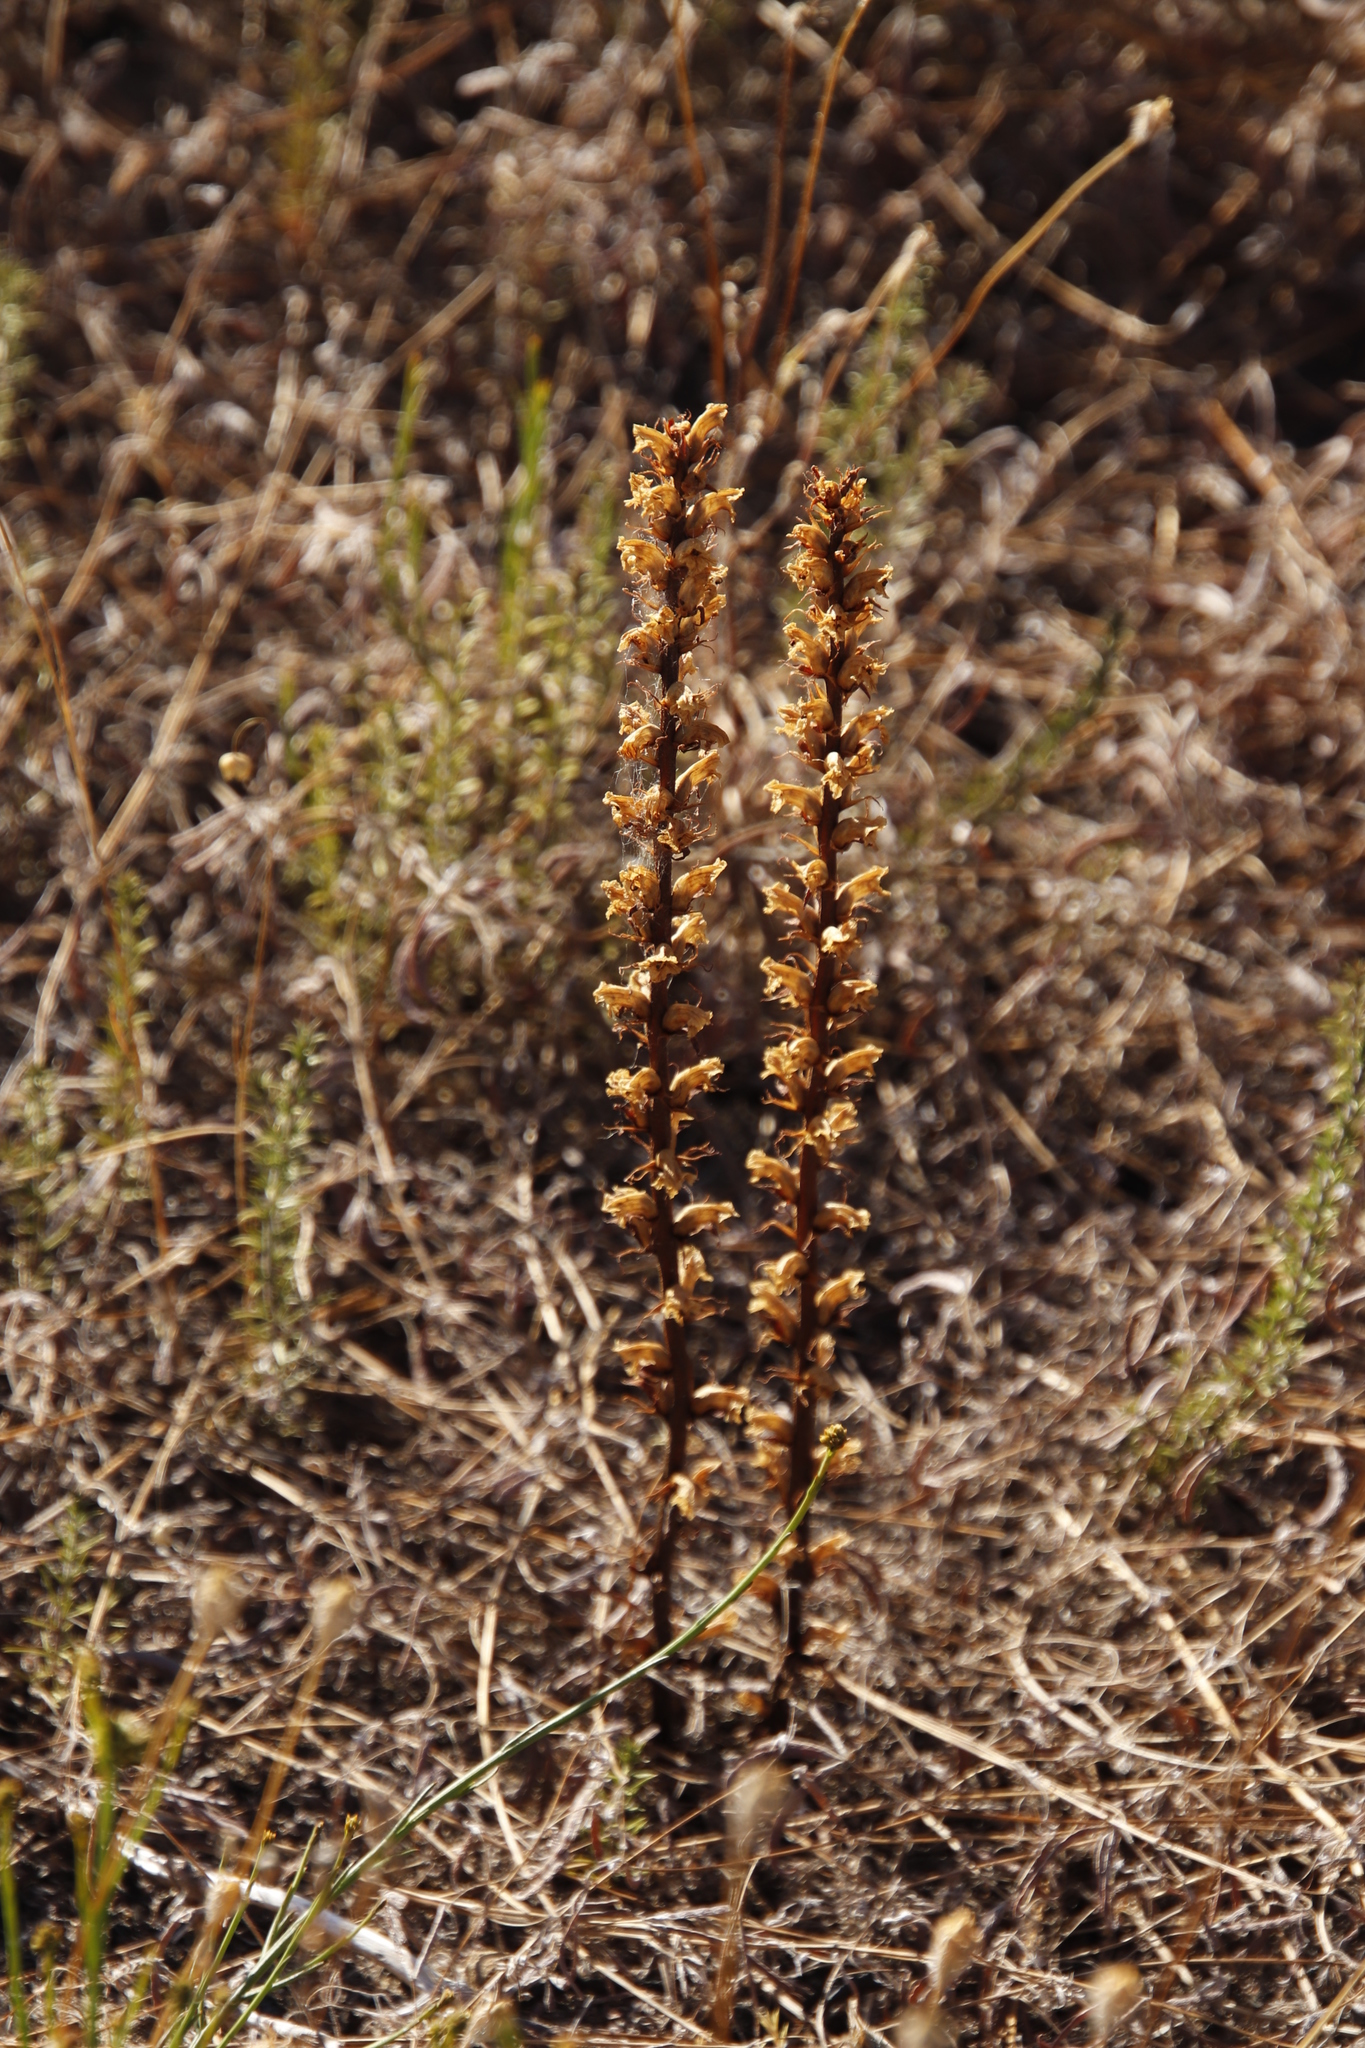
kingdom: Plantae
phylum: Tracheophyta
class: Magnoliopsida
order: Lamiales
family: Orobanchaceae
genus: Orobanche
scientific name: Orobanche minor
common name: Common broomrape
